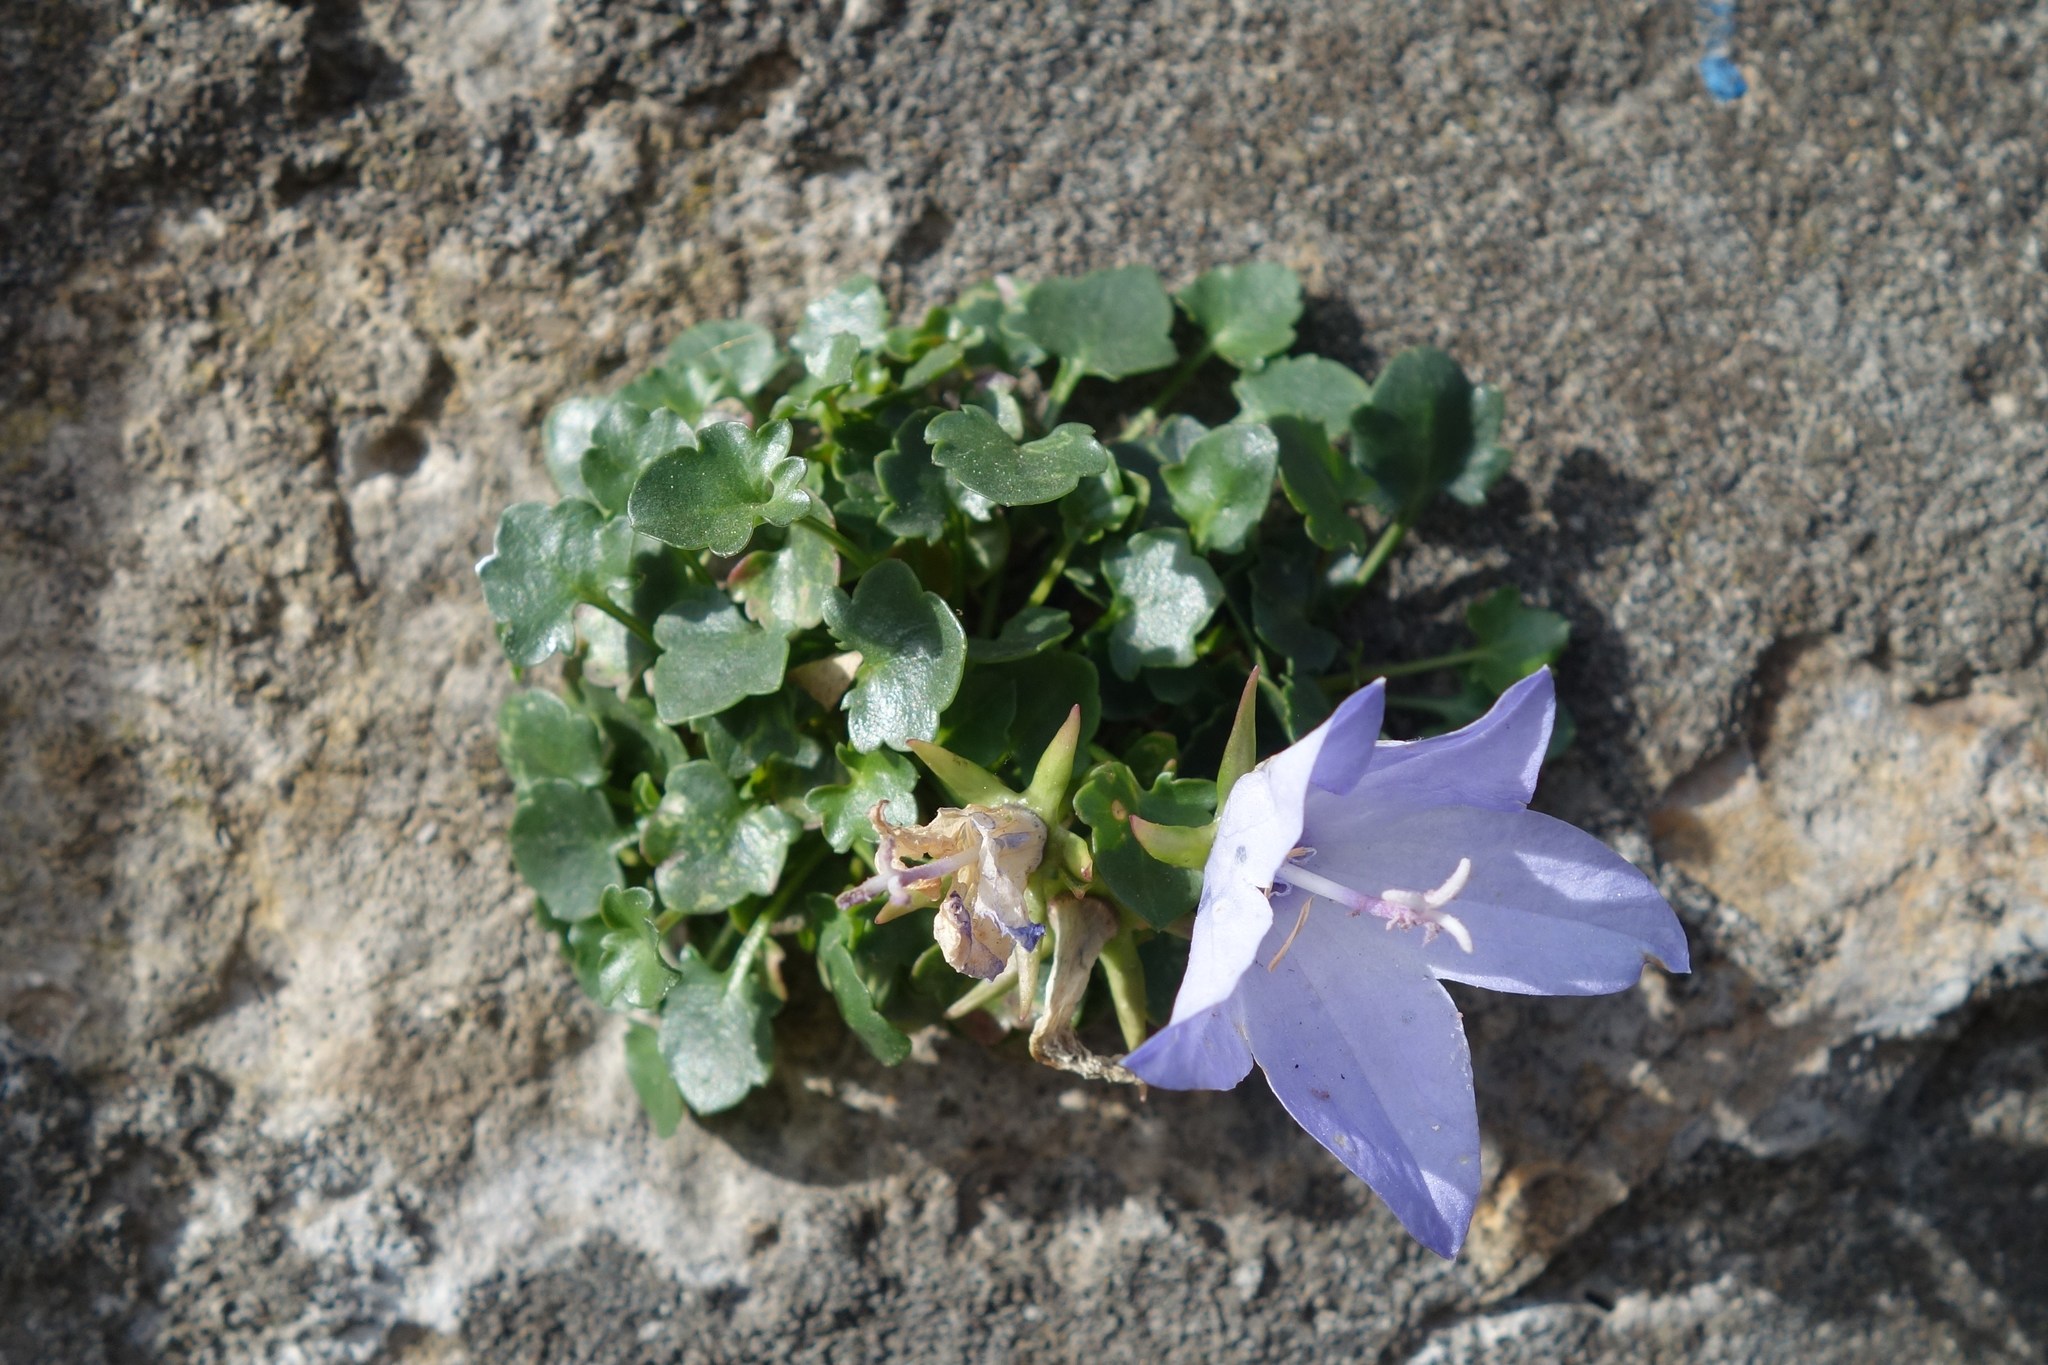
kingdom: Plantae
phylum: Tracheophyta
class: Magnoliopsida
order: Asterales
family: Campanulaceae
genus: Campanula
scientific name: Campanula fragilis
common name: Italian bellflower
